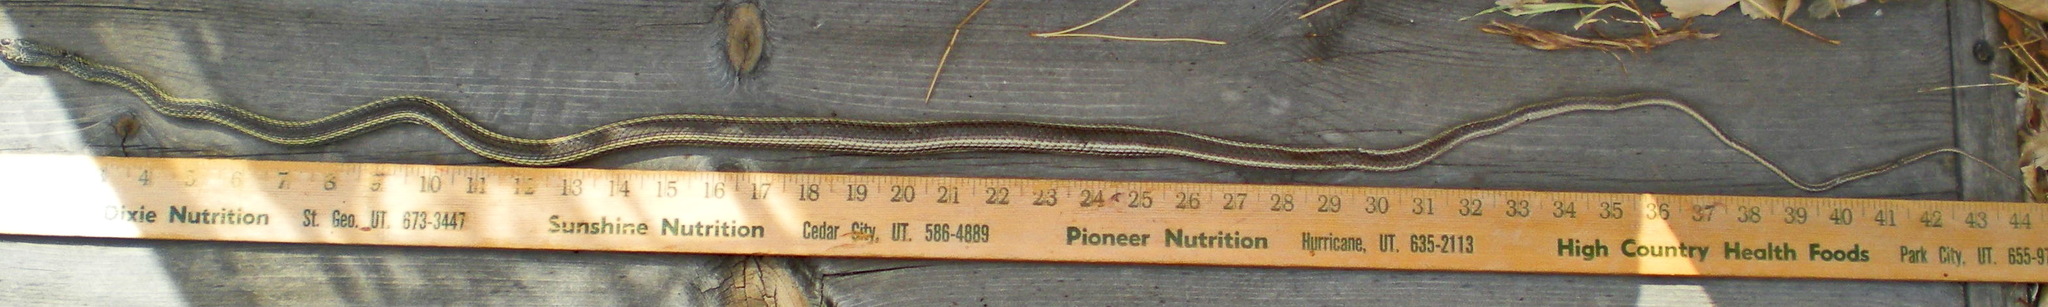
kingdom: Animalia
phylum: Chordata
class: Squamata
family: Colubridae
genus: Masticophis
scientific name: Masticophis taeniatus
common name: Striped whipsnake
